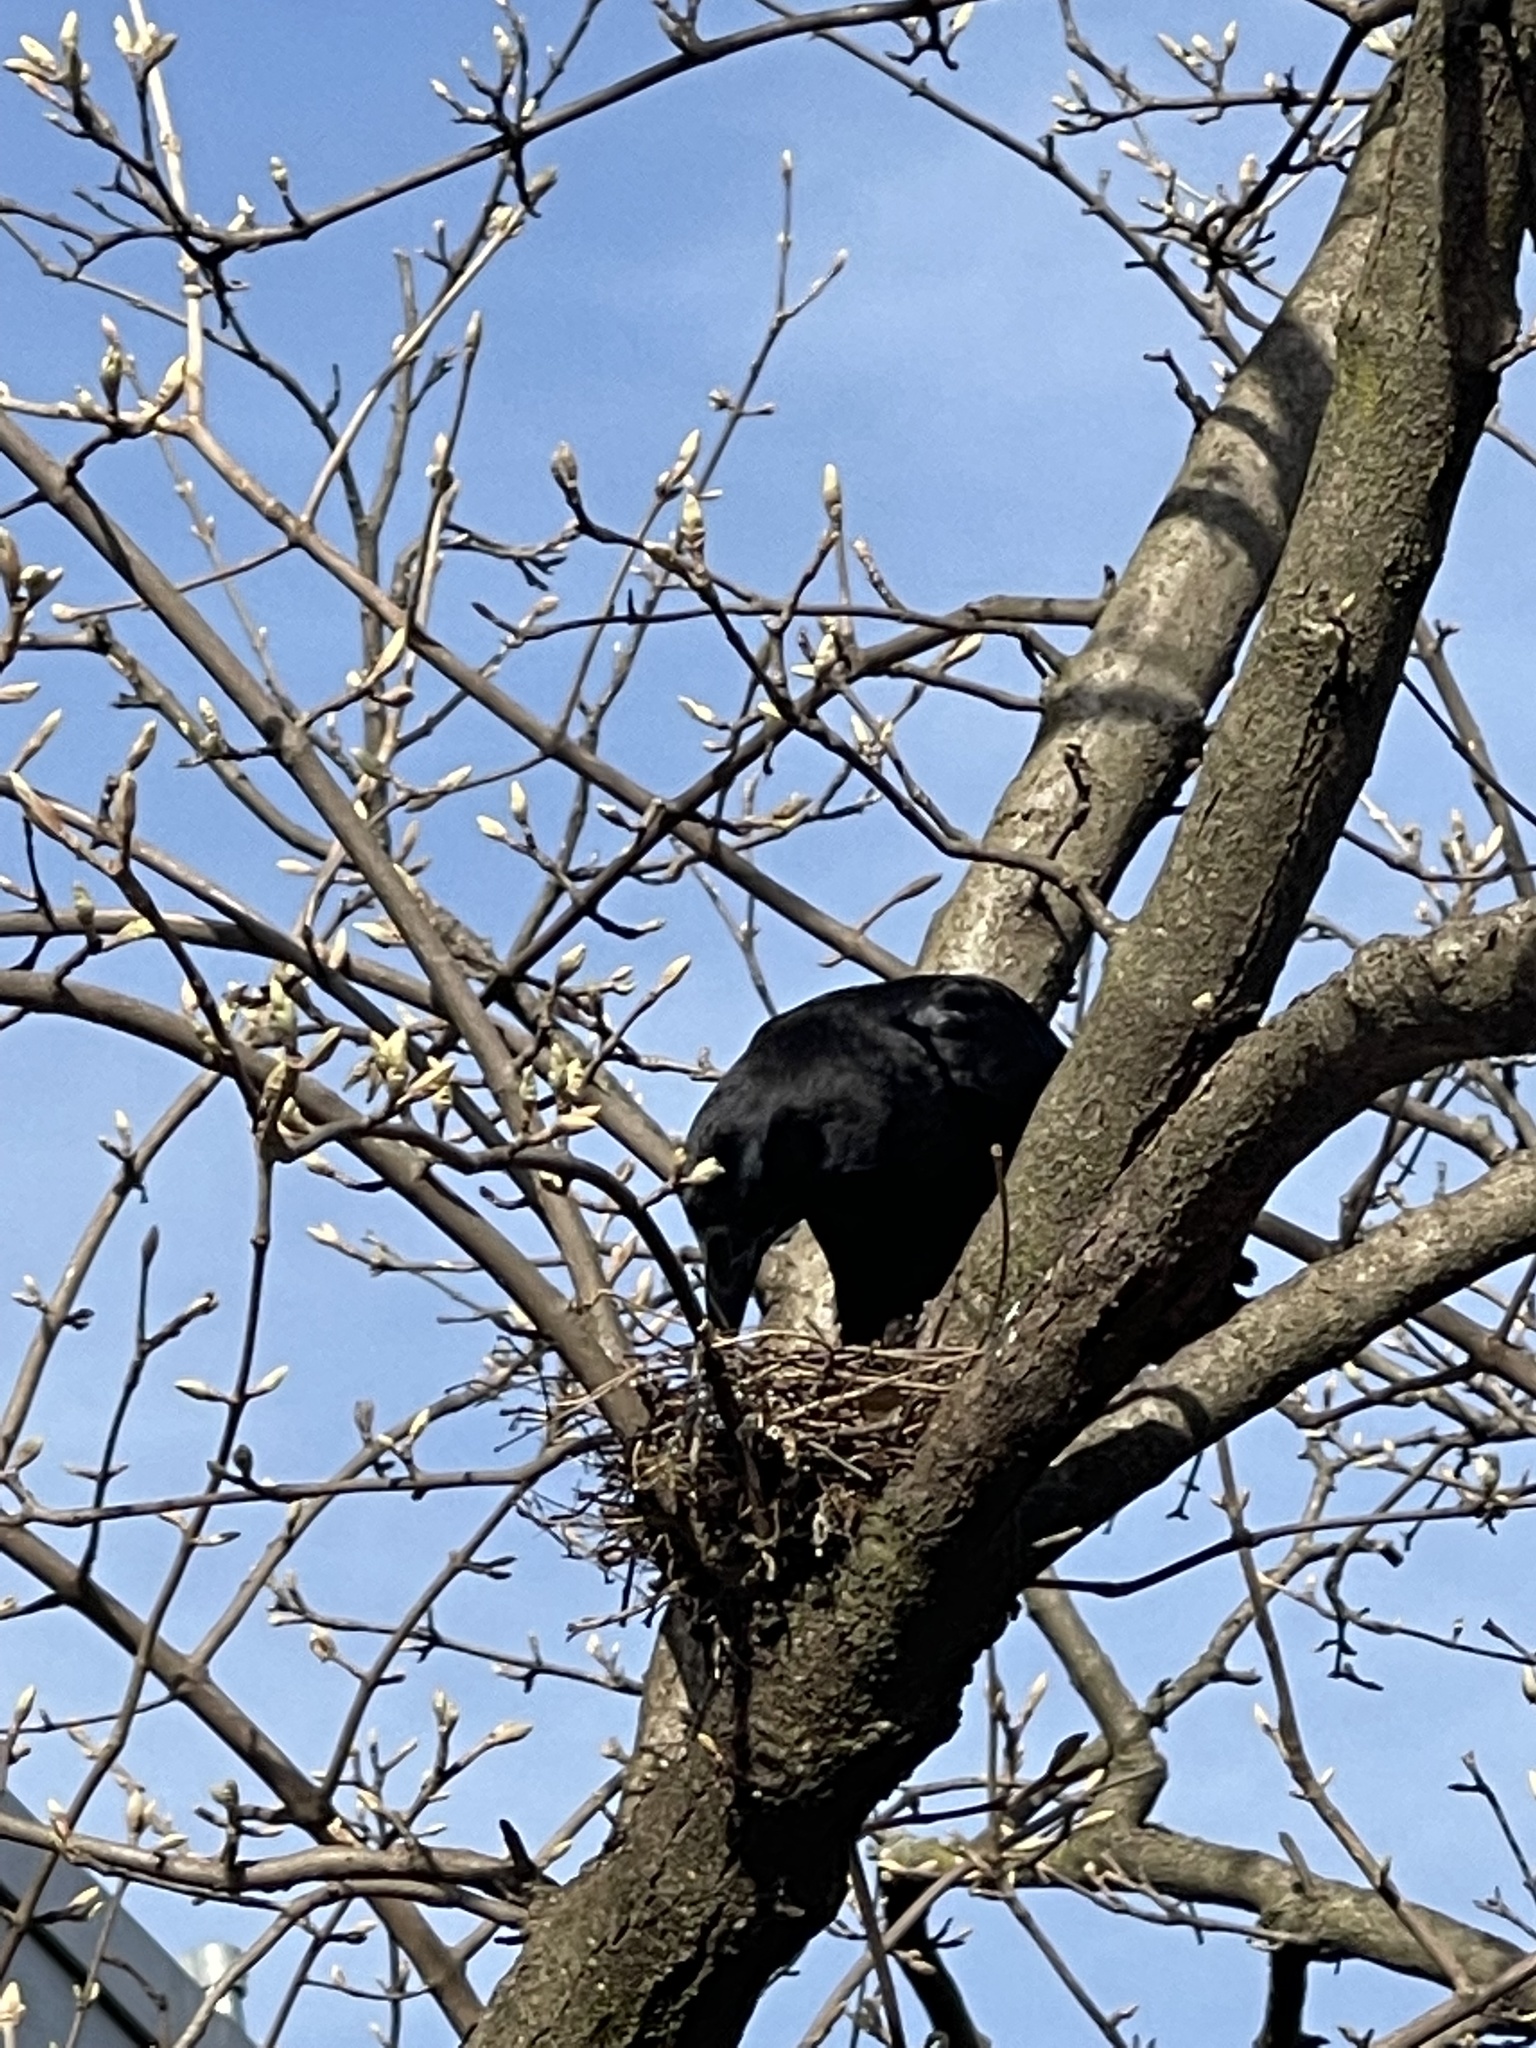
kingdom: Animalia
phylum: Chordata
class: Aves
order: Passeriformes
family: Corvidae
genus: Corvus
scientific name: Corvus brachyrhynchos
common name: American crow
